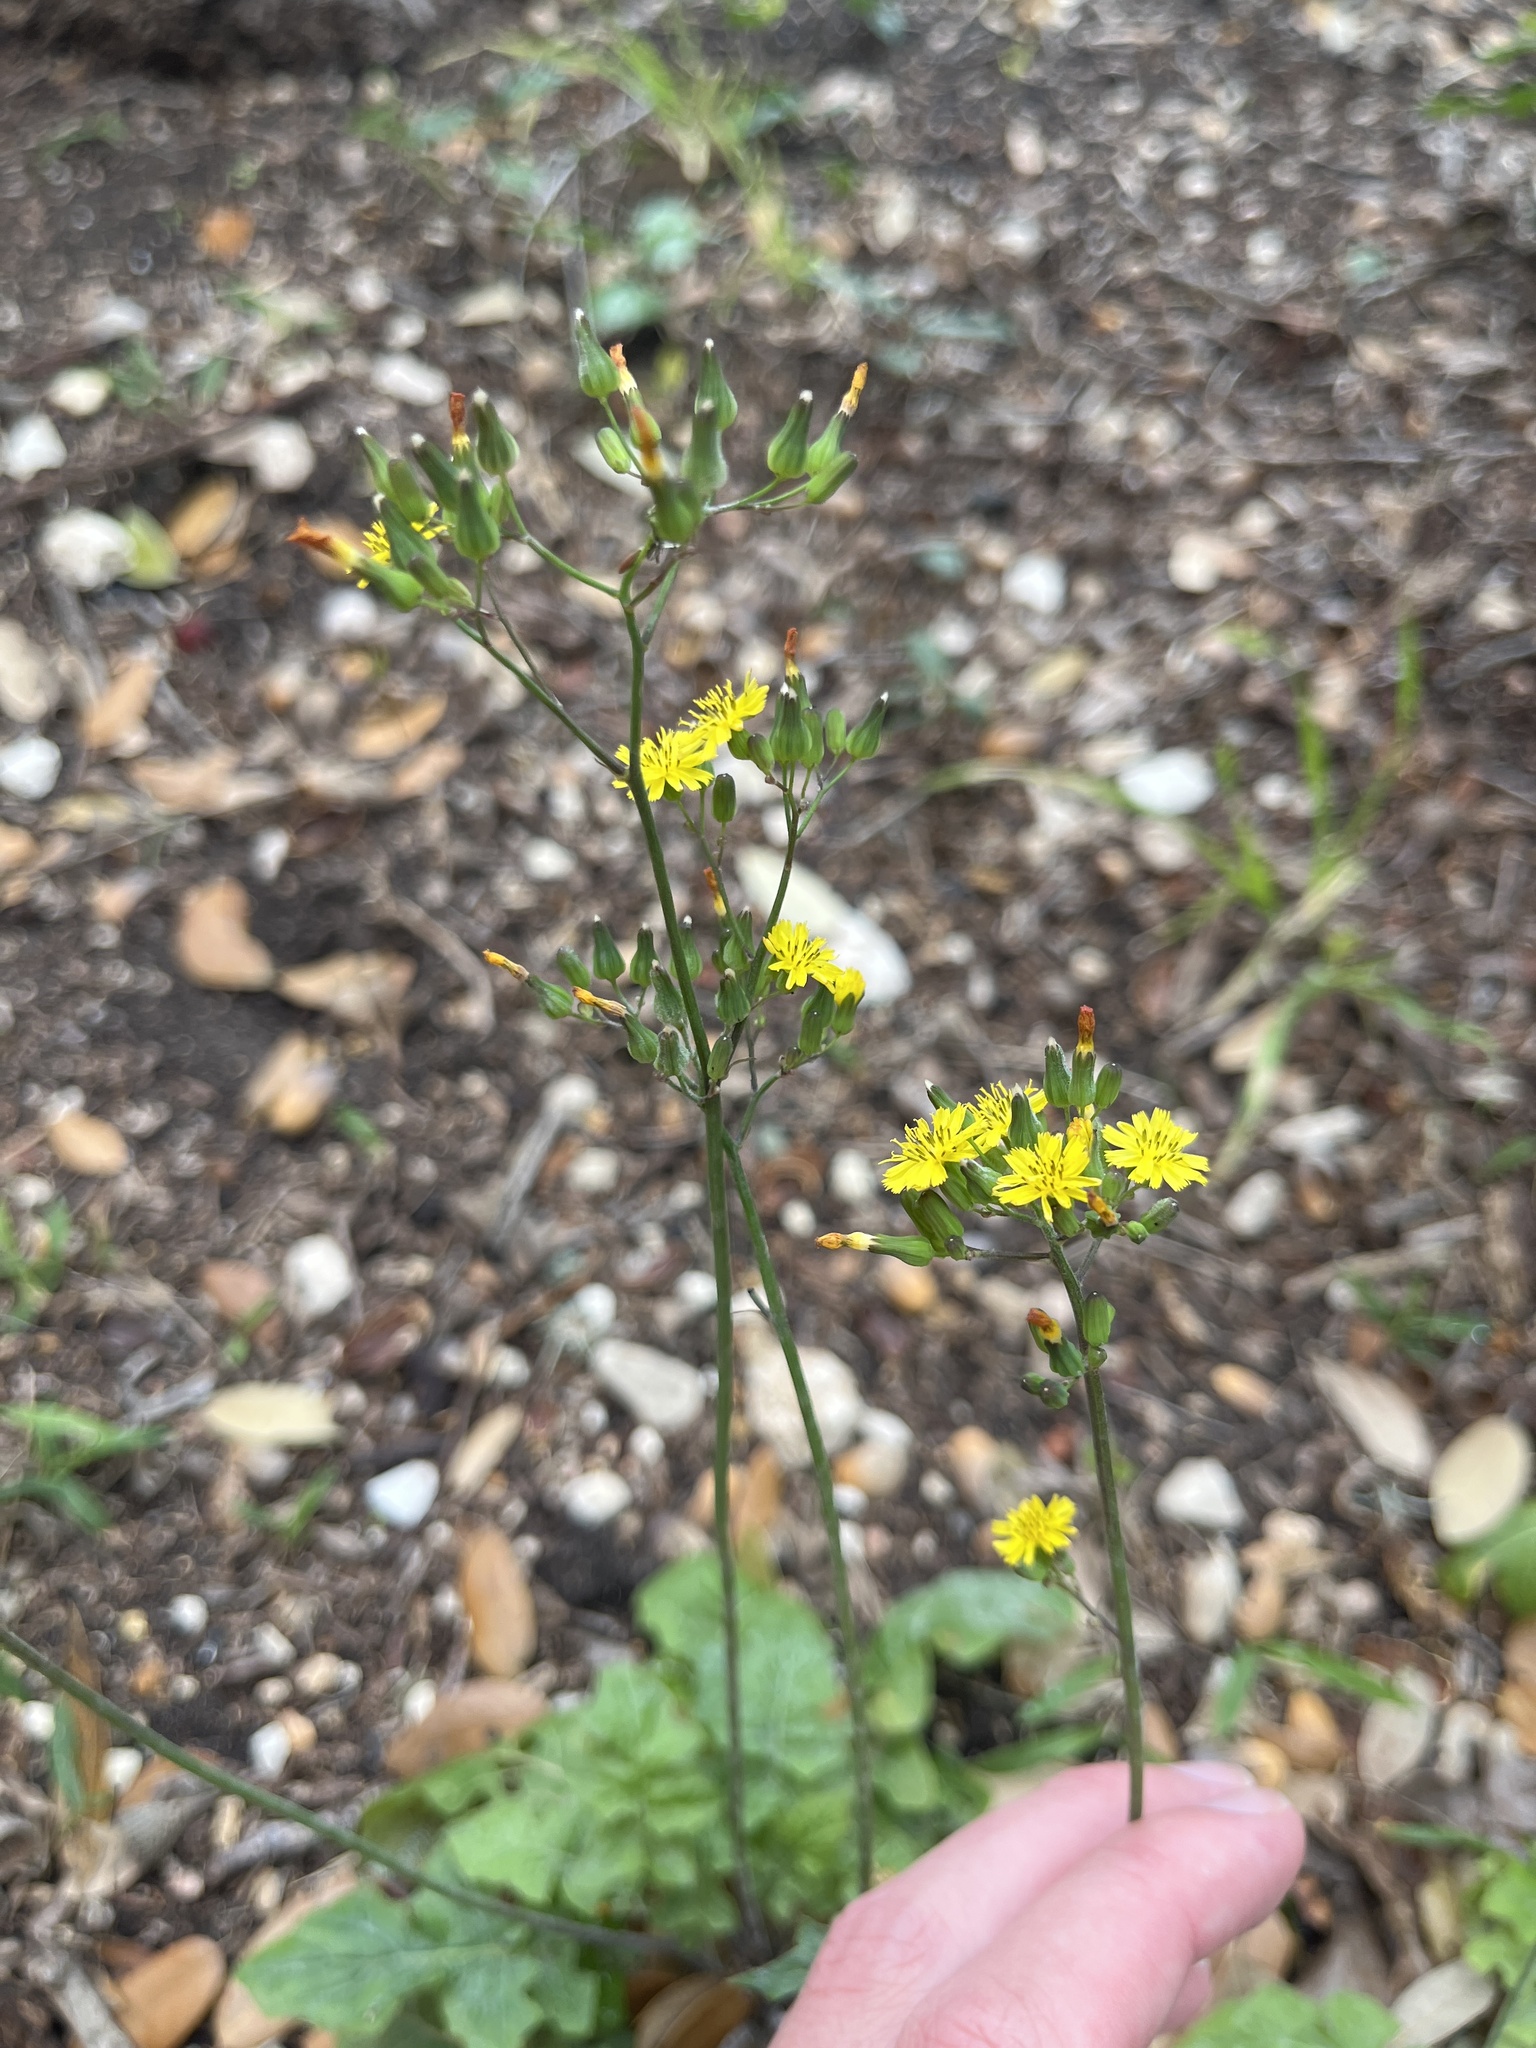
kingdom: Plantae
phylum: Tracheophyta
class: Magnoliopsida
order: Asterales
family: Asteraceae
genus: Youngia
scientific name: Youngia japonica
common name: Oriental false hawksbeard
